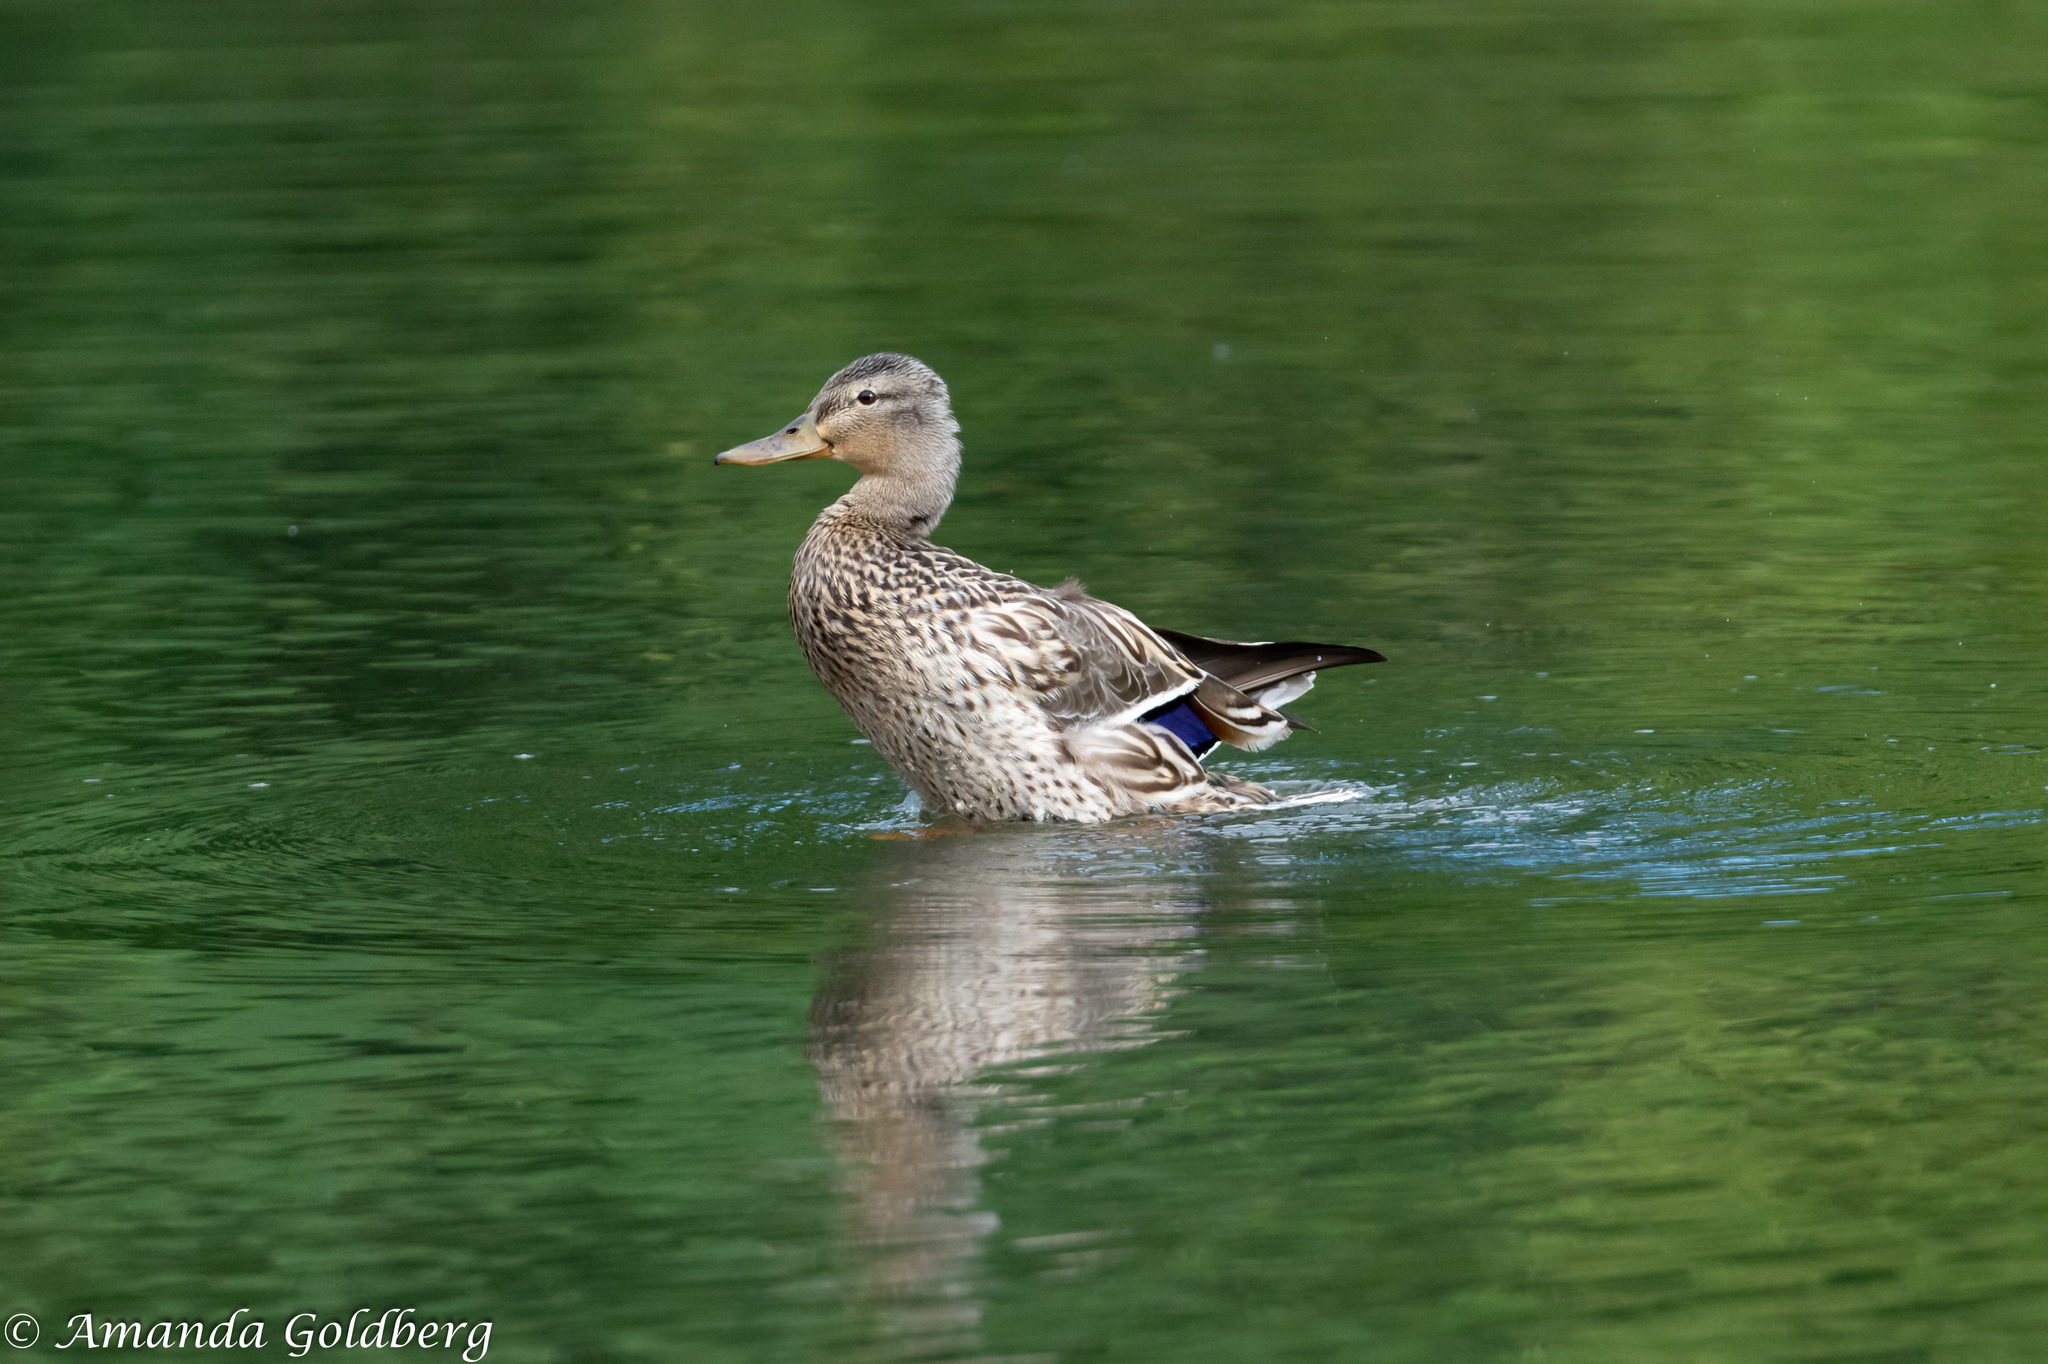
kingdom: Animalia
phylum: Chordata
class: Aves
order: Anseriformes
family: Anatidae
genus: Anas
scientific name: Anas platyrhynchos
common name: Mallard
